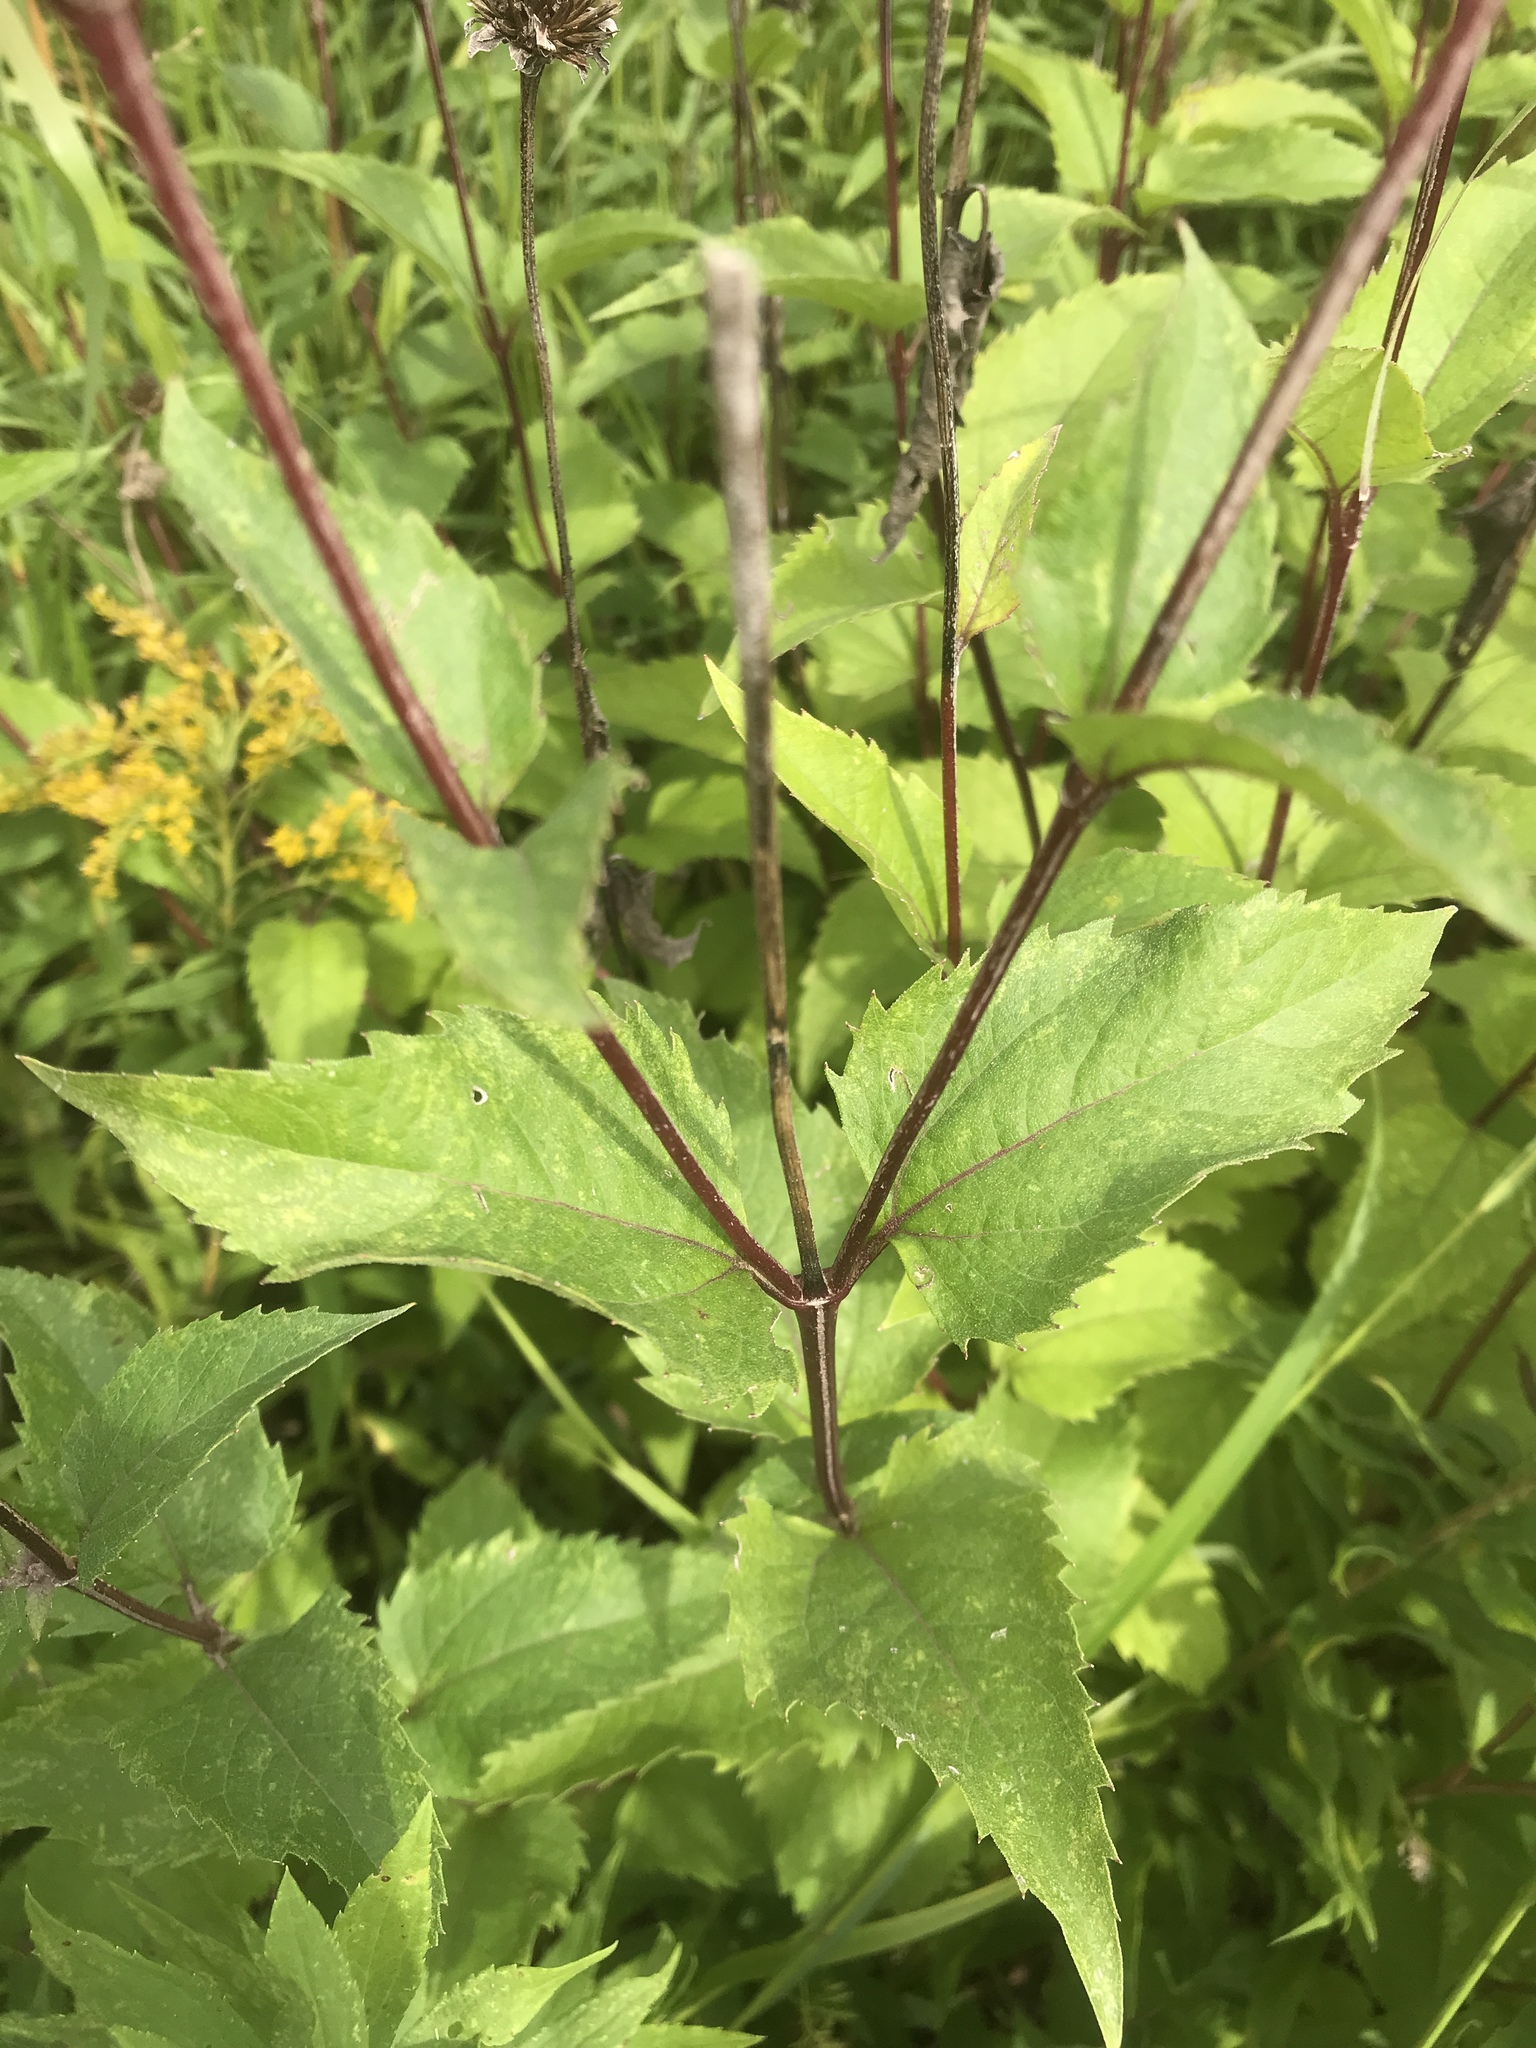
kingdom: Plantae
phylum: Tracheophyta
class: Magnoliopsida
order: Asterales
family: Asteraceae
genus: Heliopsis
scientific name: Heliopsis helianthoides
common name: False sunflower
